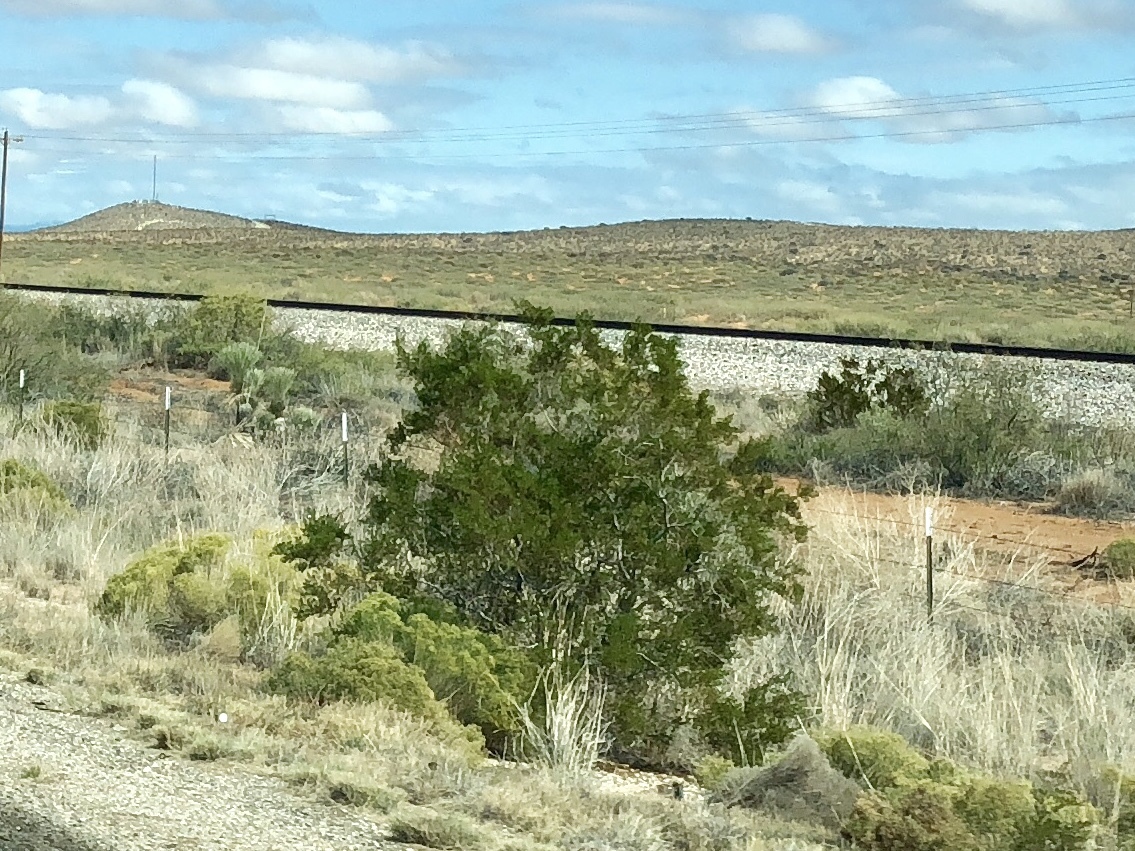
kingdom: Plantae
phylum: Tracheophyta
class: Magnoliopsida
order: Zygophyllales
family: Zygophyllaceae
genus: Larrea
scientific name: Larrea tridentata
